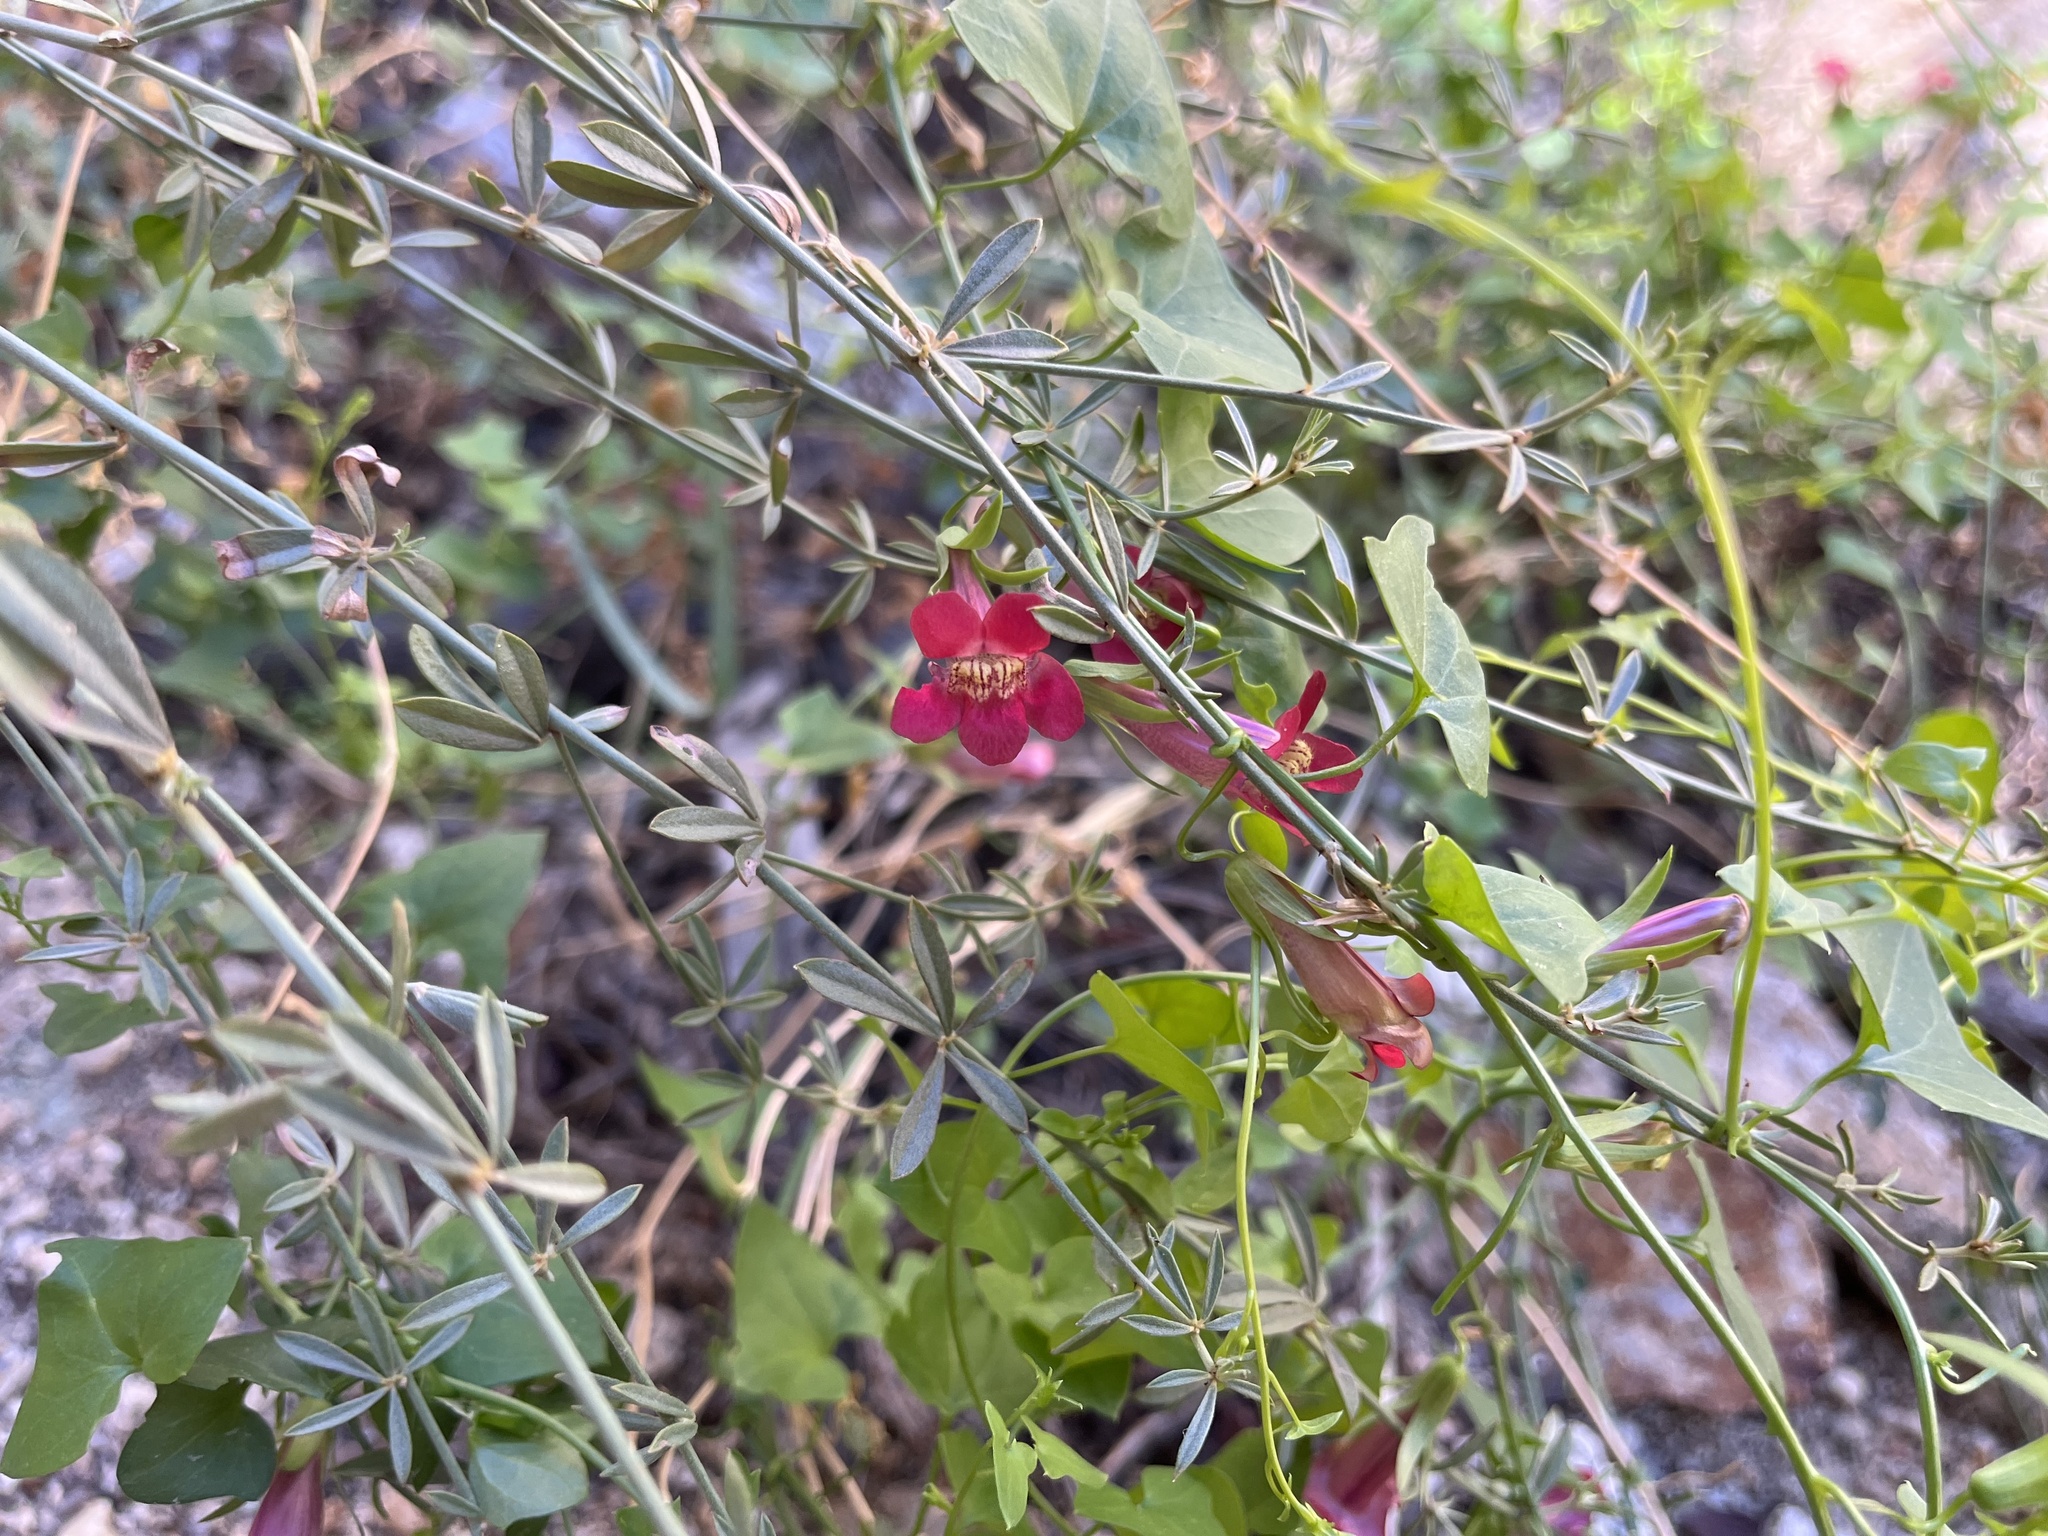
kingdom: Plantae
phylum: Tracheophyta
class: Magnoliopsida
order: Lamiales
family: Plantaginaceae
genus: Maurandella
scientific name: Maurandella antirrhiniflora
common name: Violet twining-snapdragon
